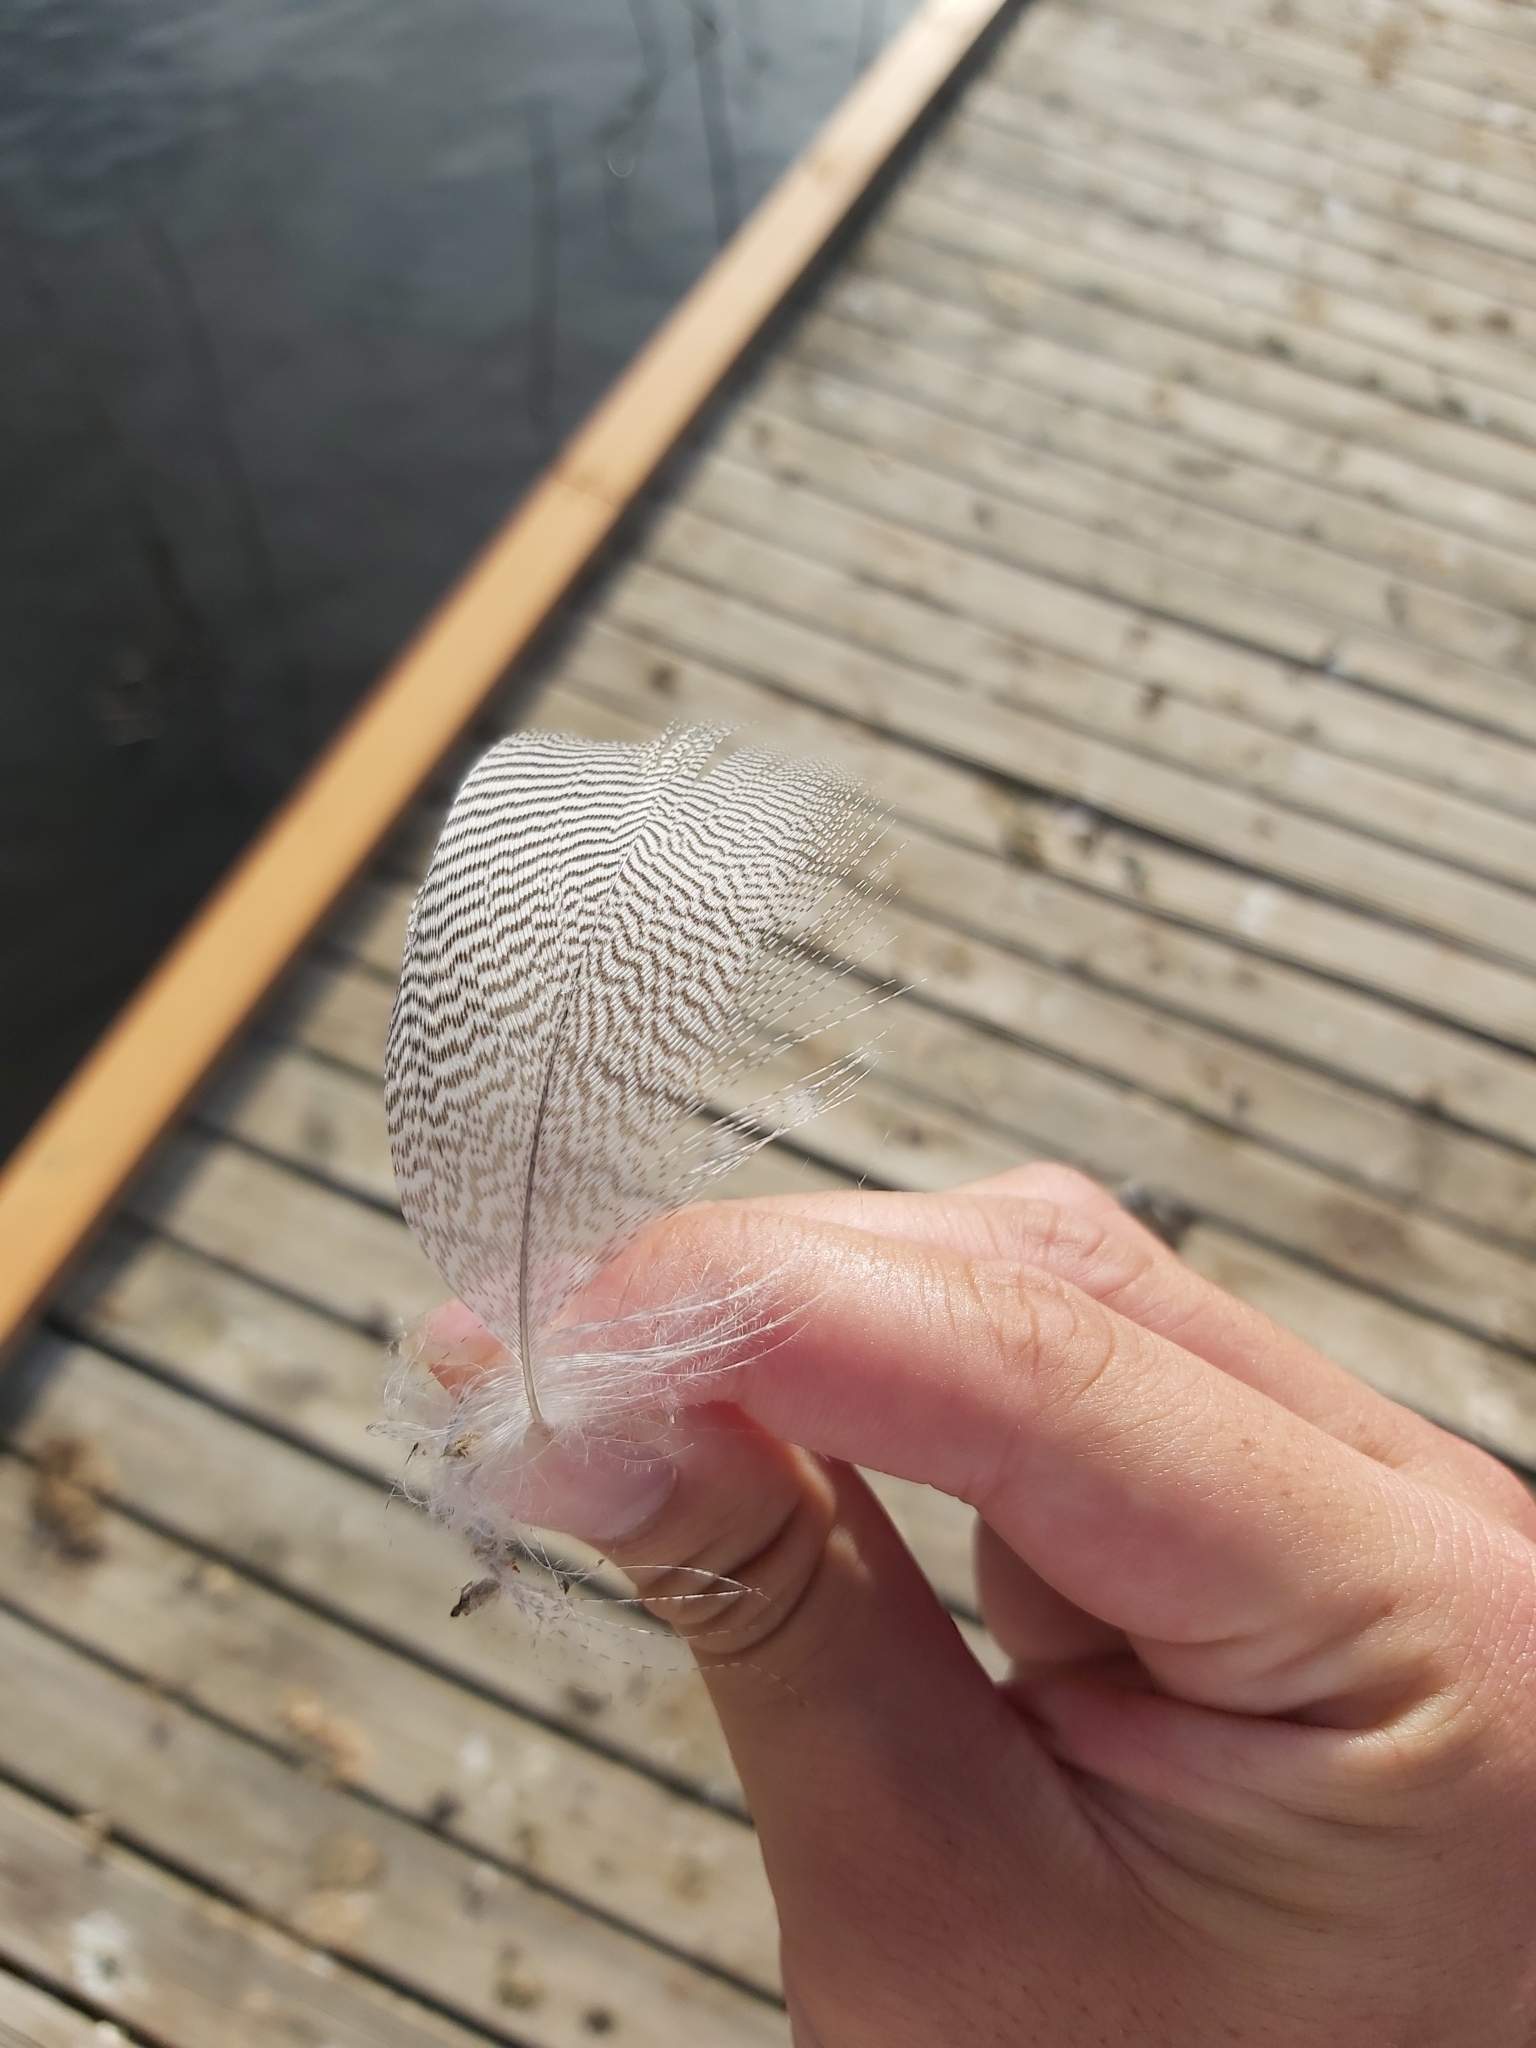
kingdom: Animalia
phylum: Chordata
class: Aves
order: Anseriformes
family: Anatidae
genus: Chenonetta
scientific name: Chenonetta jubata
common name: Maned duck
